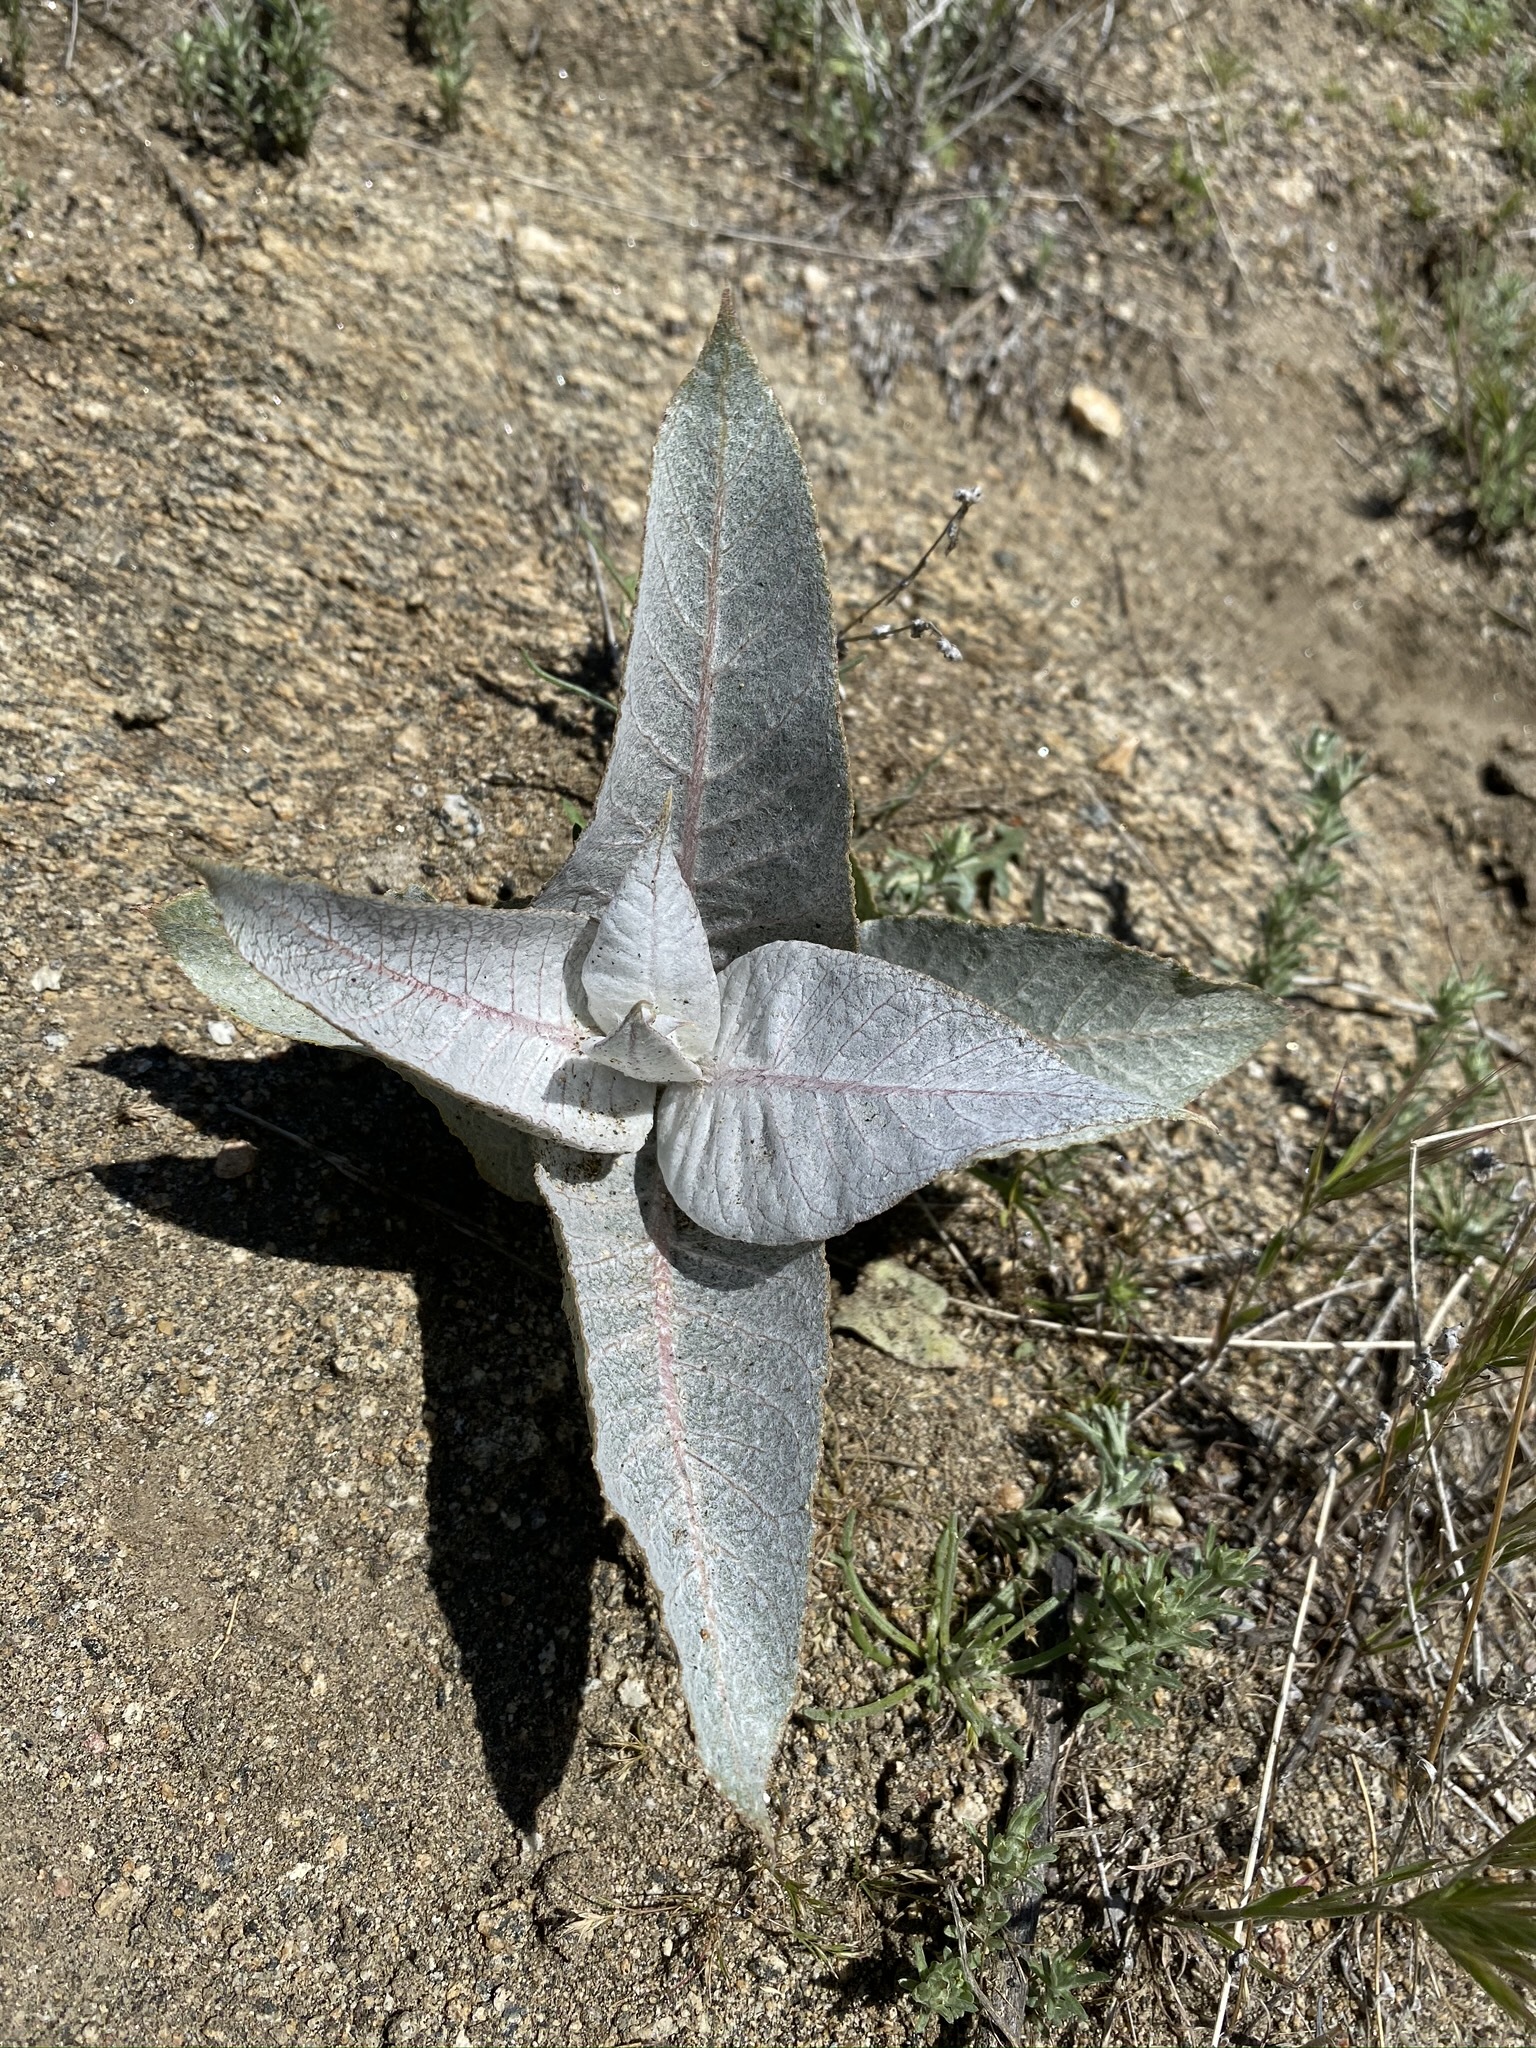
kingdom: Plantae
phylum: Tracheophyta
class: Magnoliopsida
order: Gentianales
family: Apocynaceae
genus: Asclepias
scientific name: Asclepias erosa
